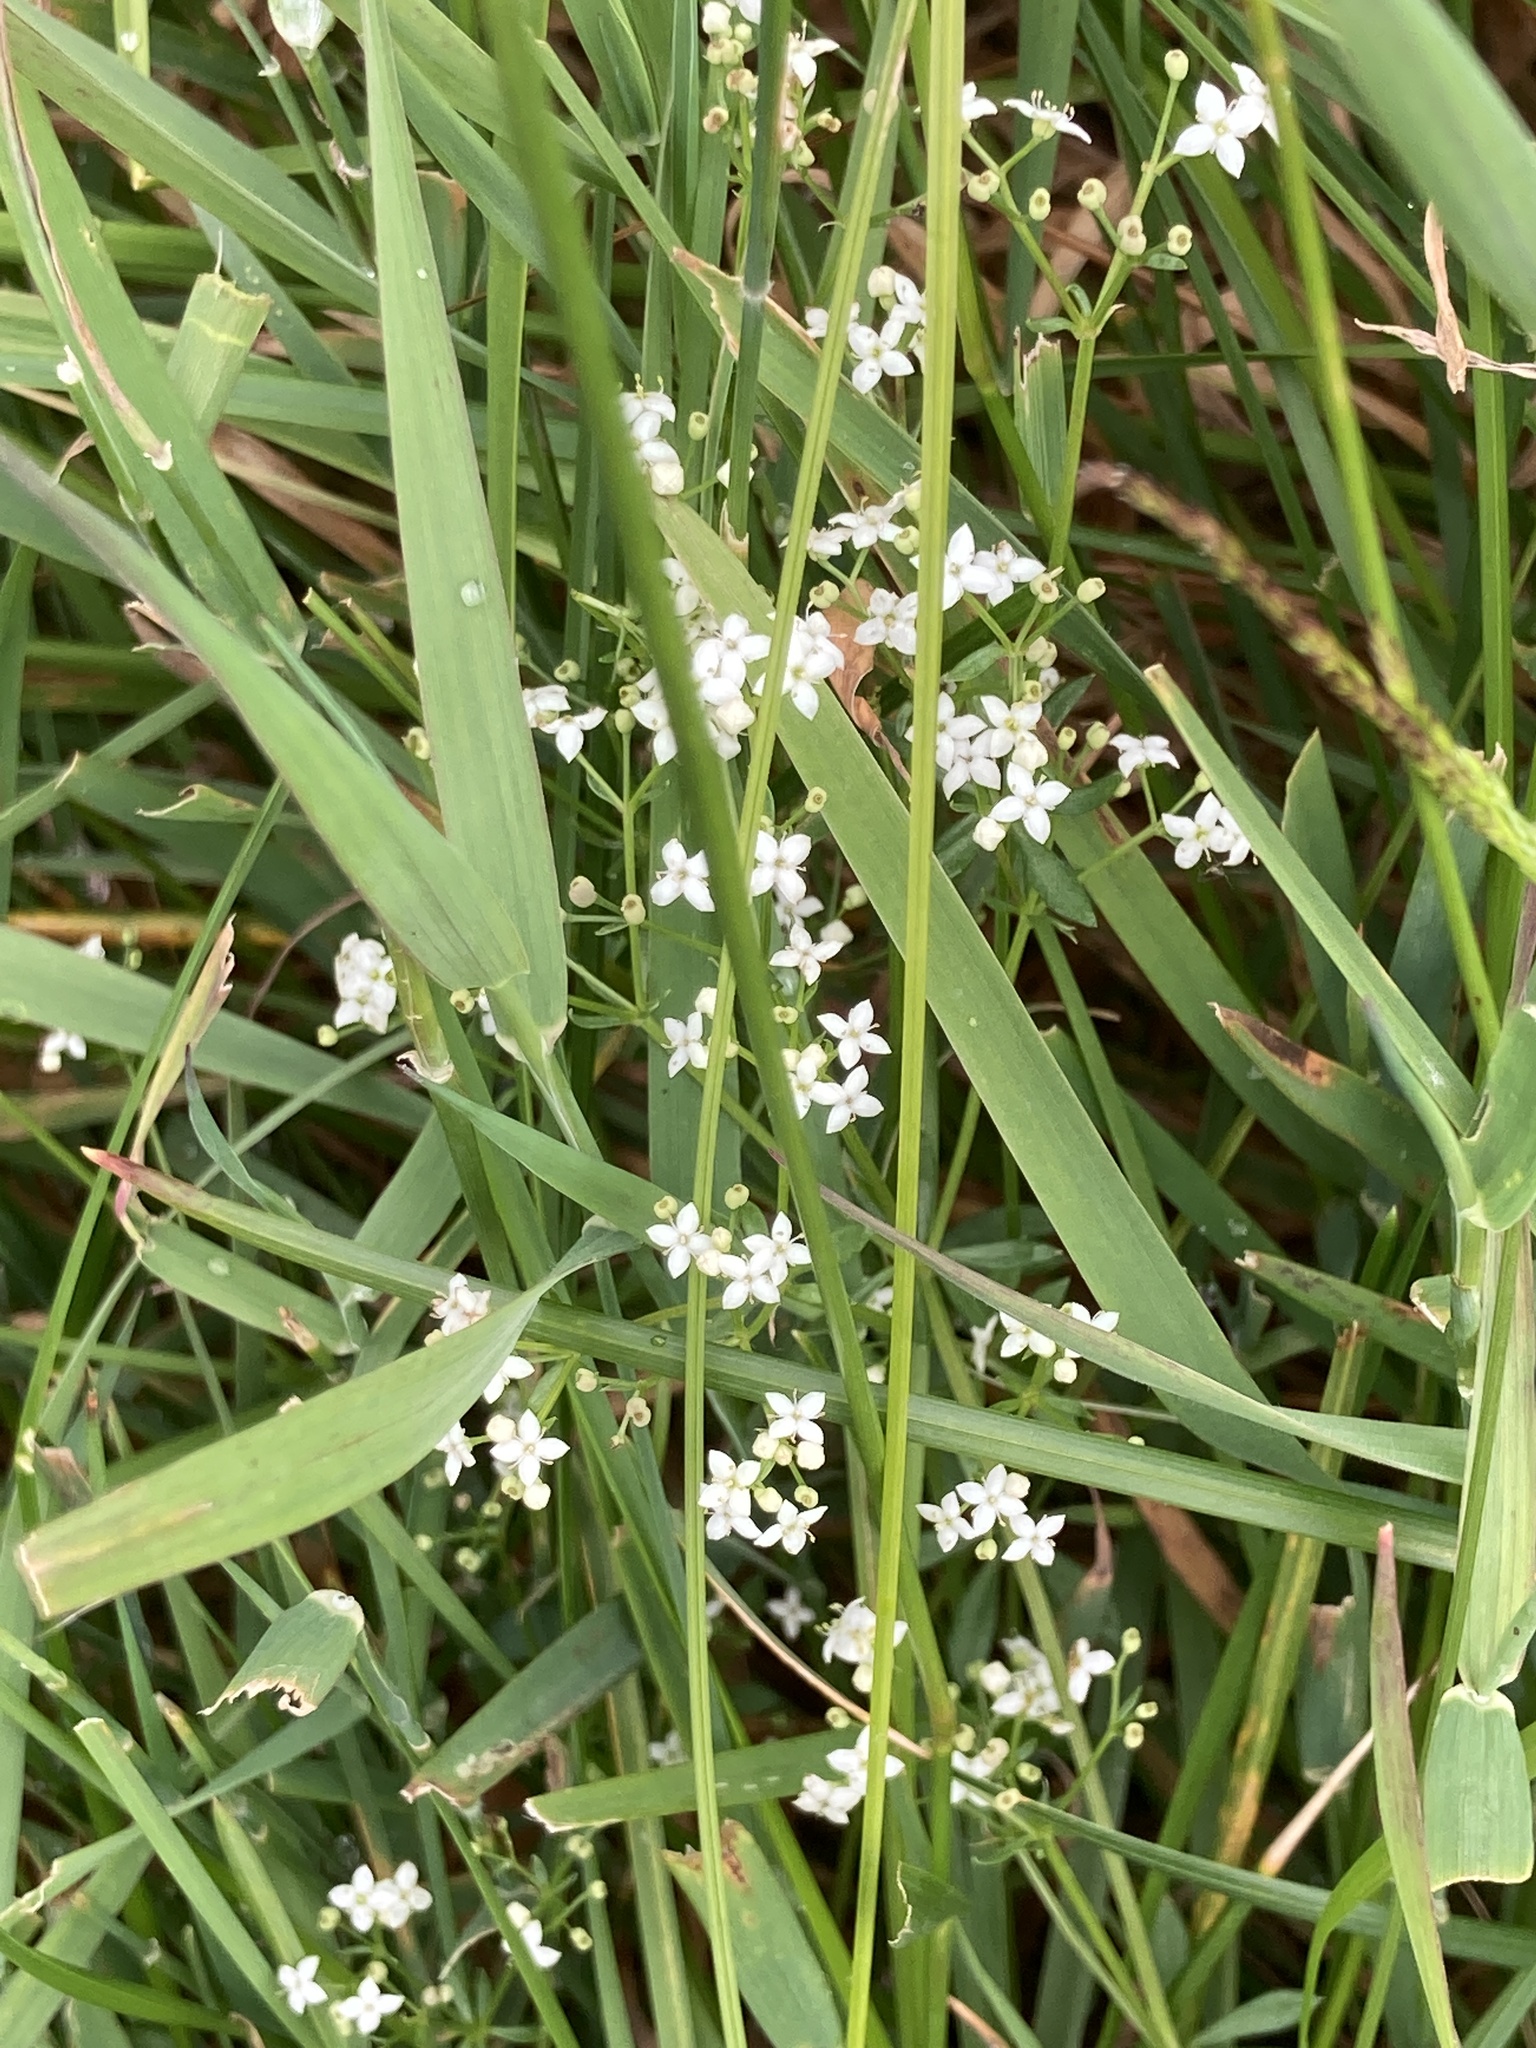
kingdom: Plantae
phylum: Tracheophyta
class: Magnoliopsida
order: Gentianales
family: Rubiaceae
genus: Galium
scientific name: Galium palustre
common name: Common marsh-bedstraw
